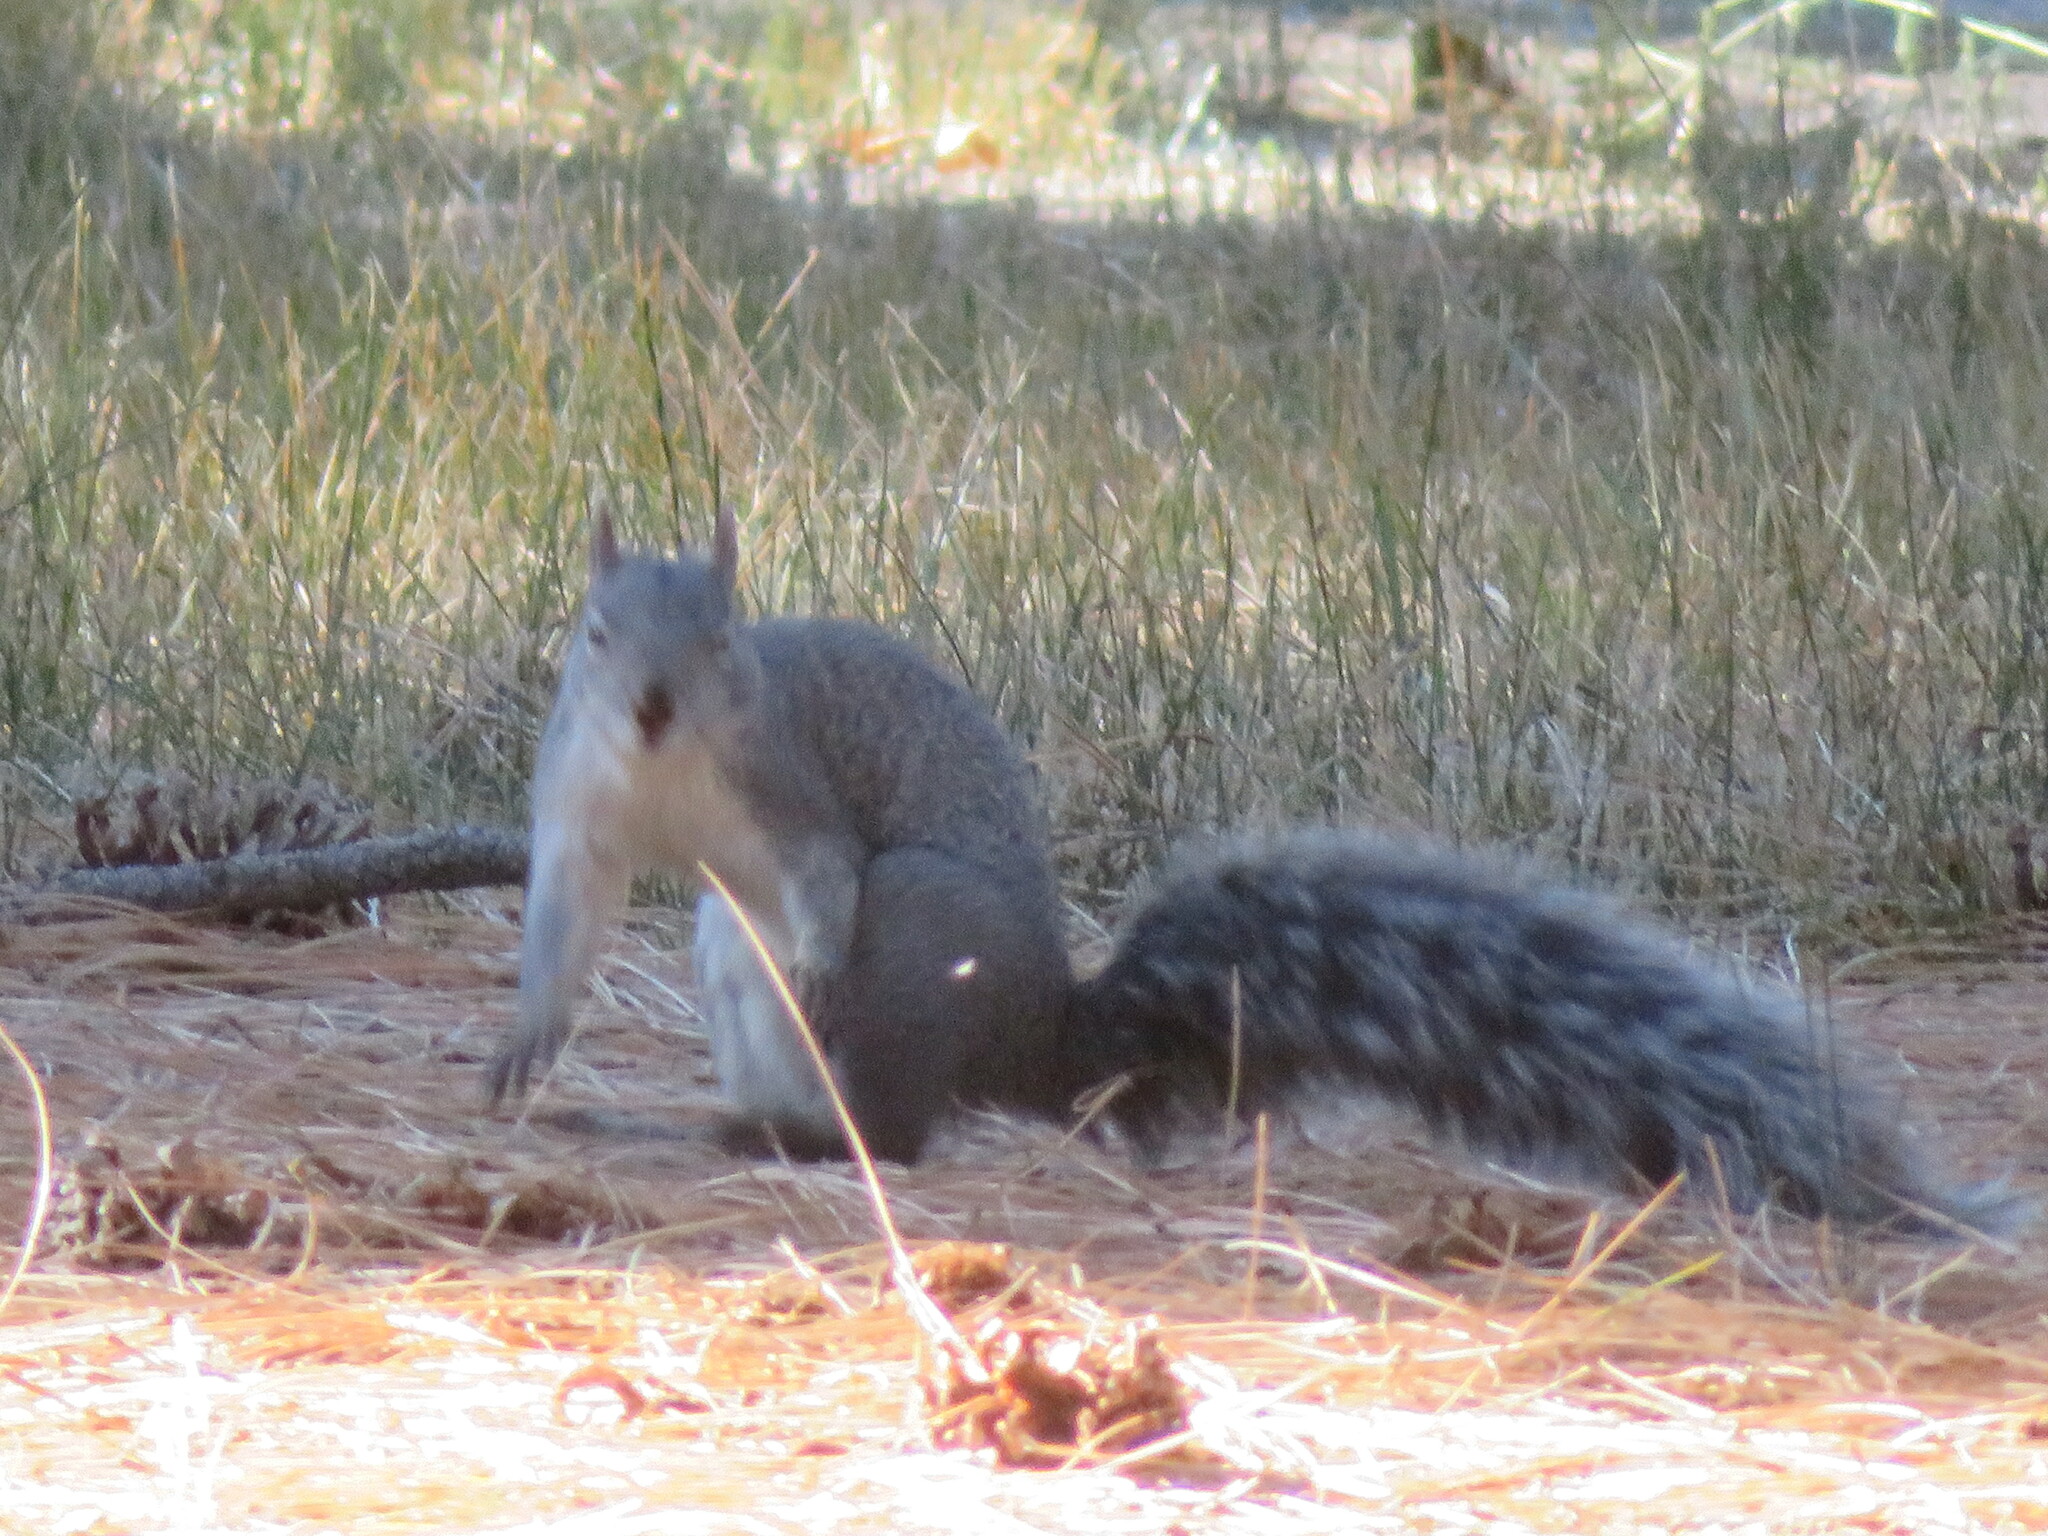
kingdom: Animalia
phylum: Chordata
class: Mammalia
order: Rodentia
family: Sciuridae
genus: Sciurus
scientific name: Sciurus griseus
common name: Western gray squirrel
